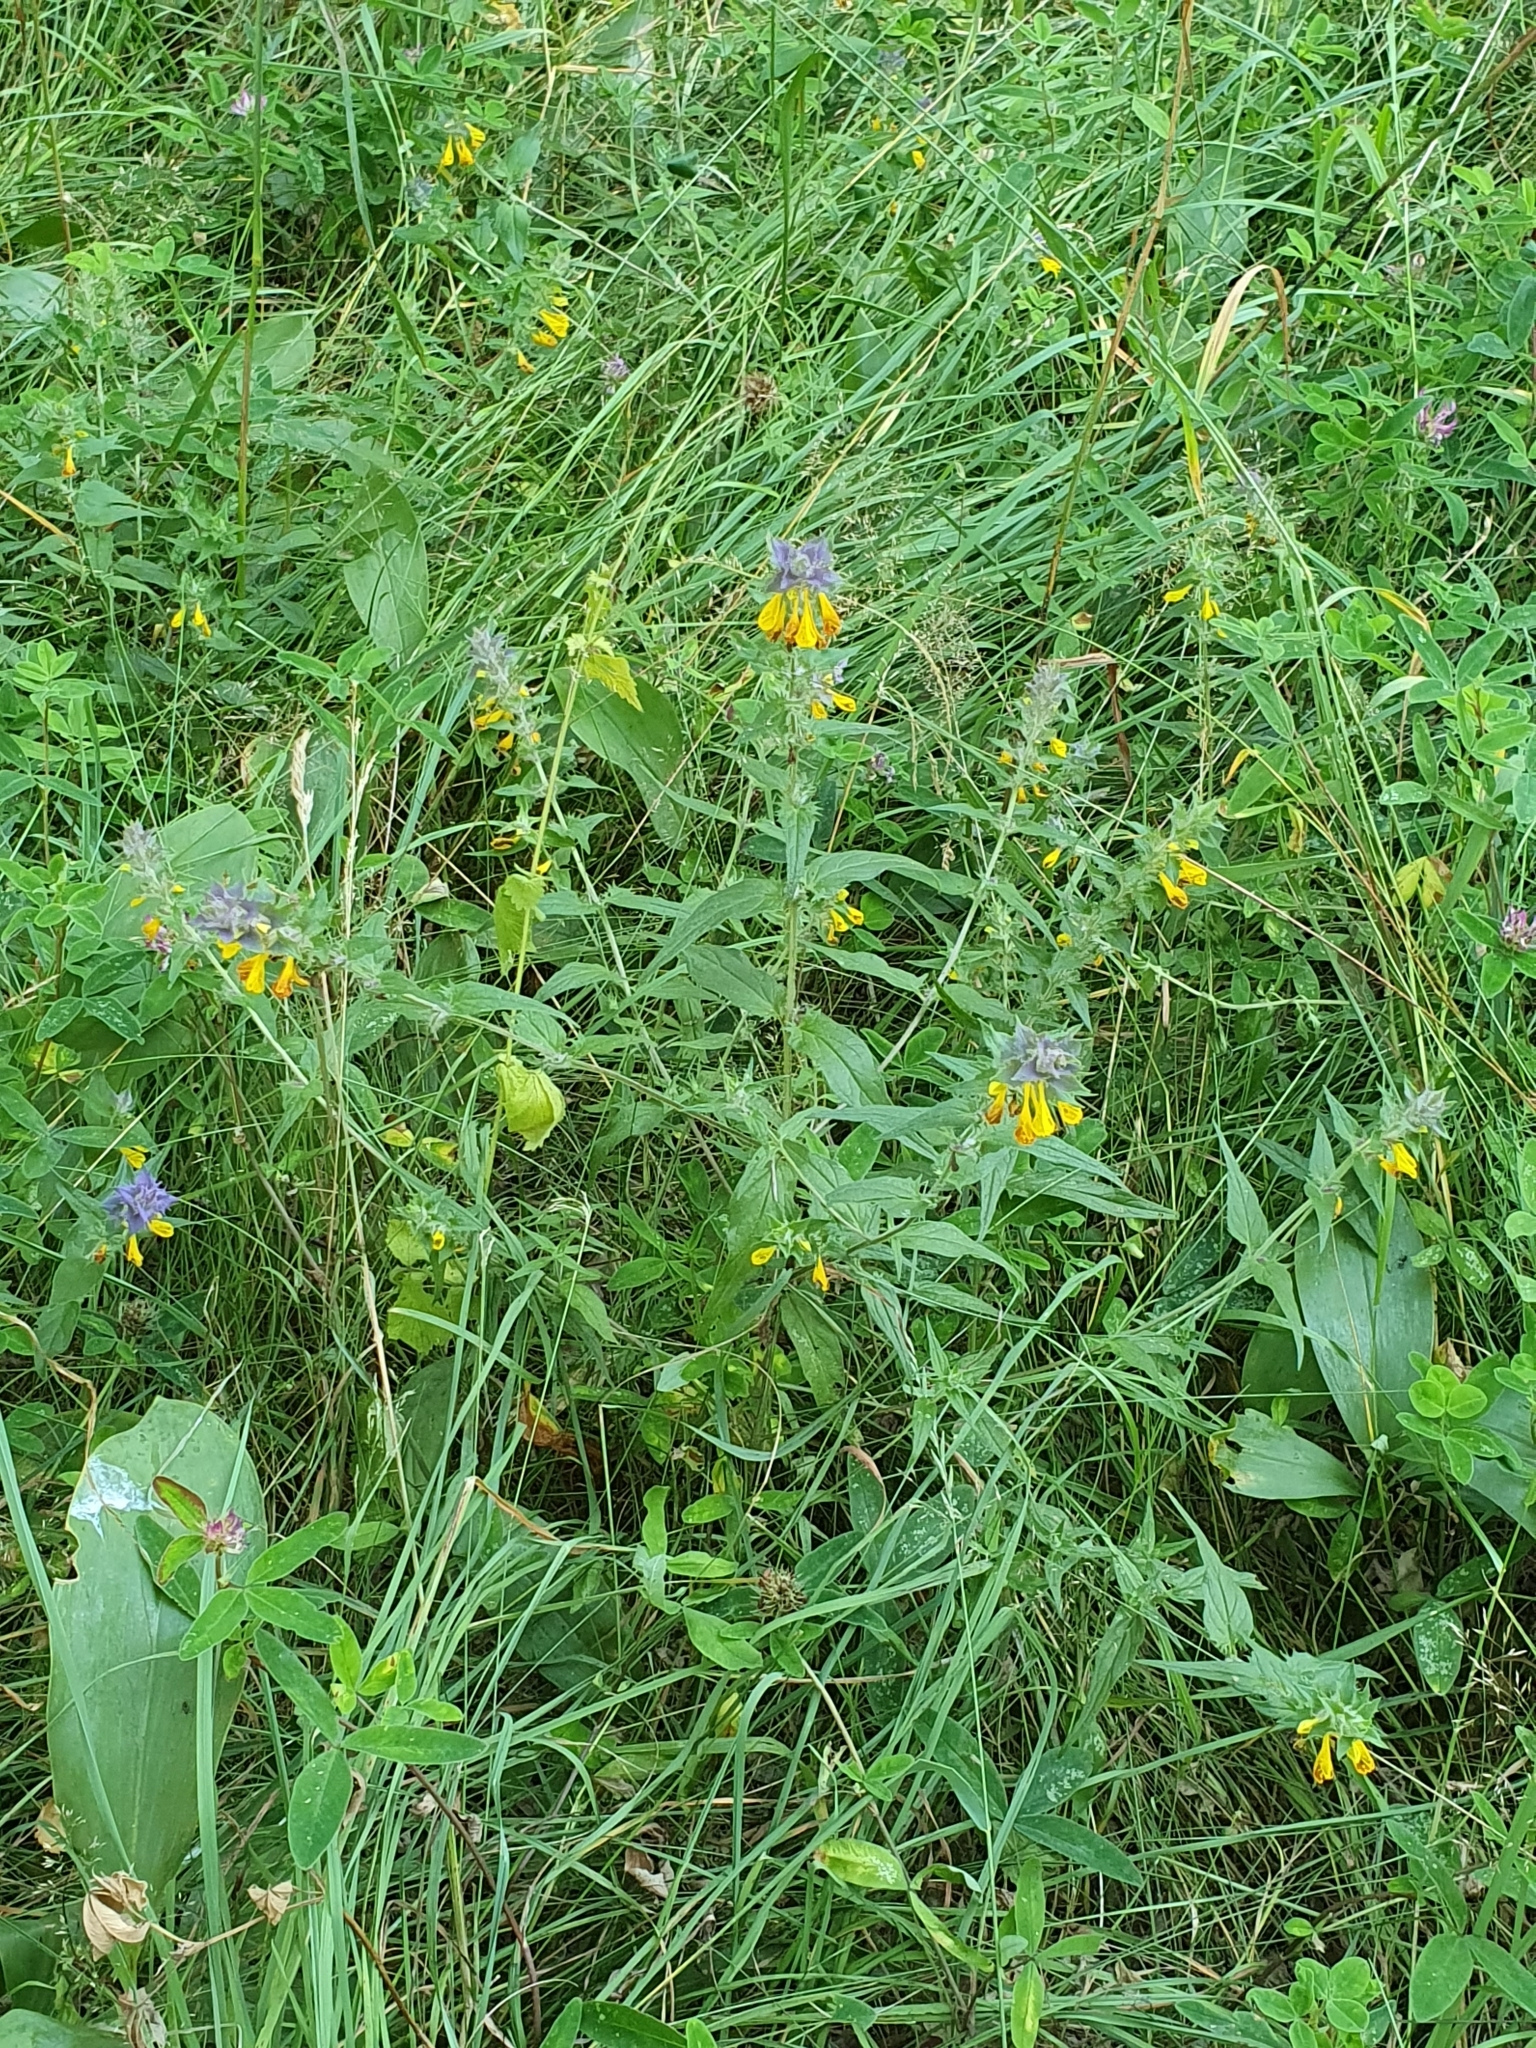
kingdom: Plantae
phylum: Tracheophyta
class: Magnoliopsida
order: Lamiales
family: Orobanchaceae
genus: Melampyrum
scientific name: Melampyrum nemorosum
